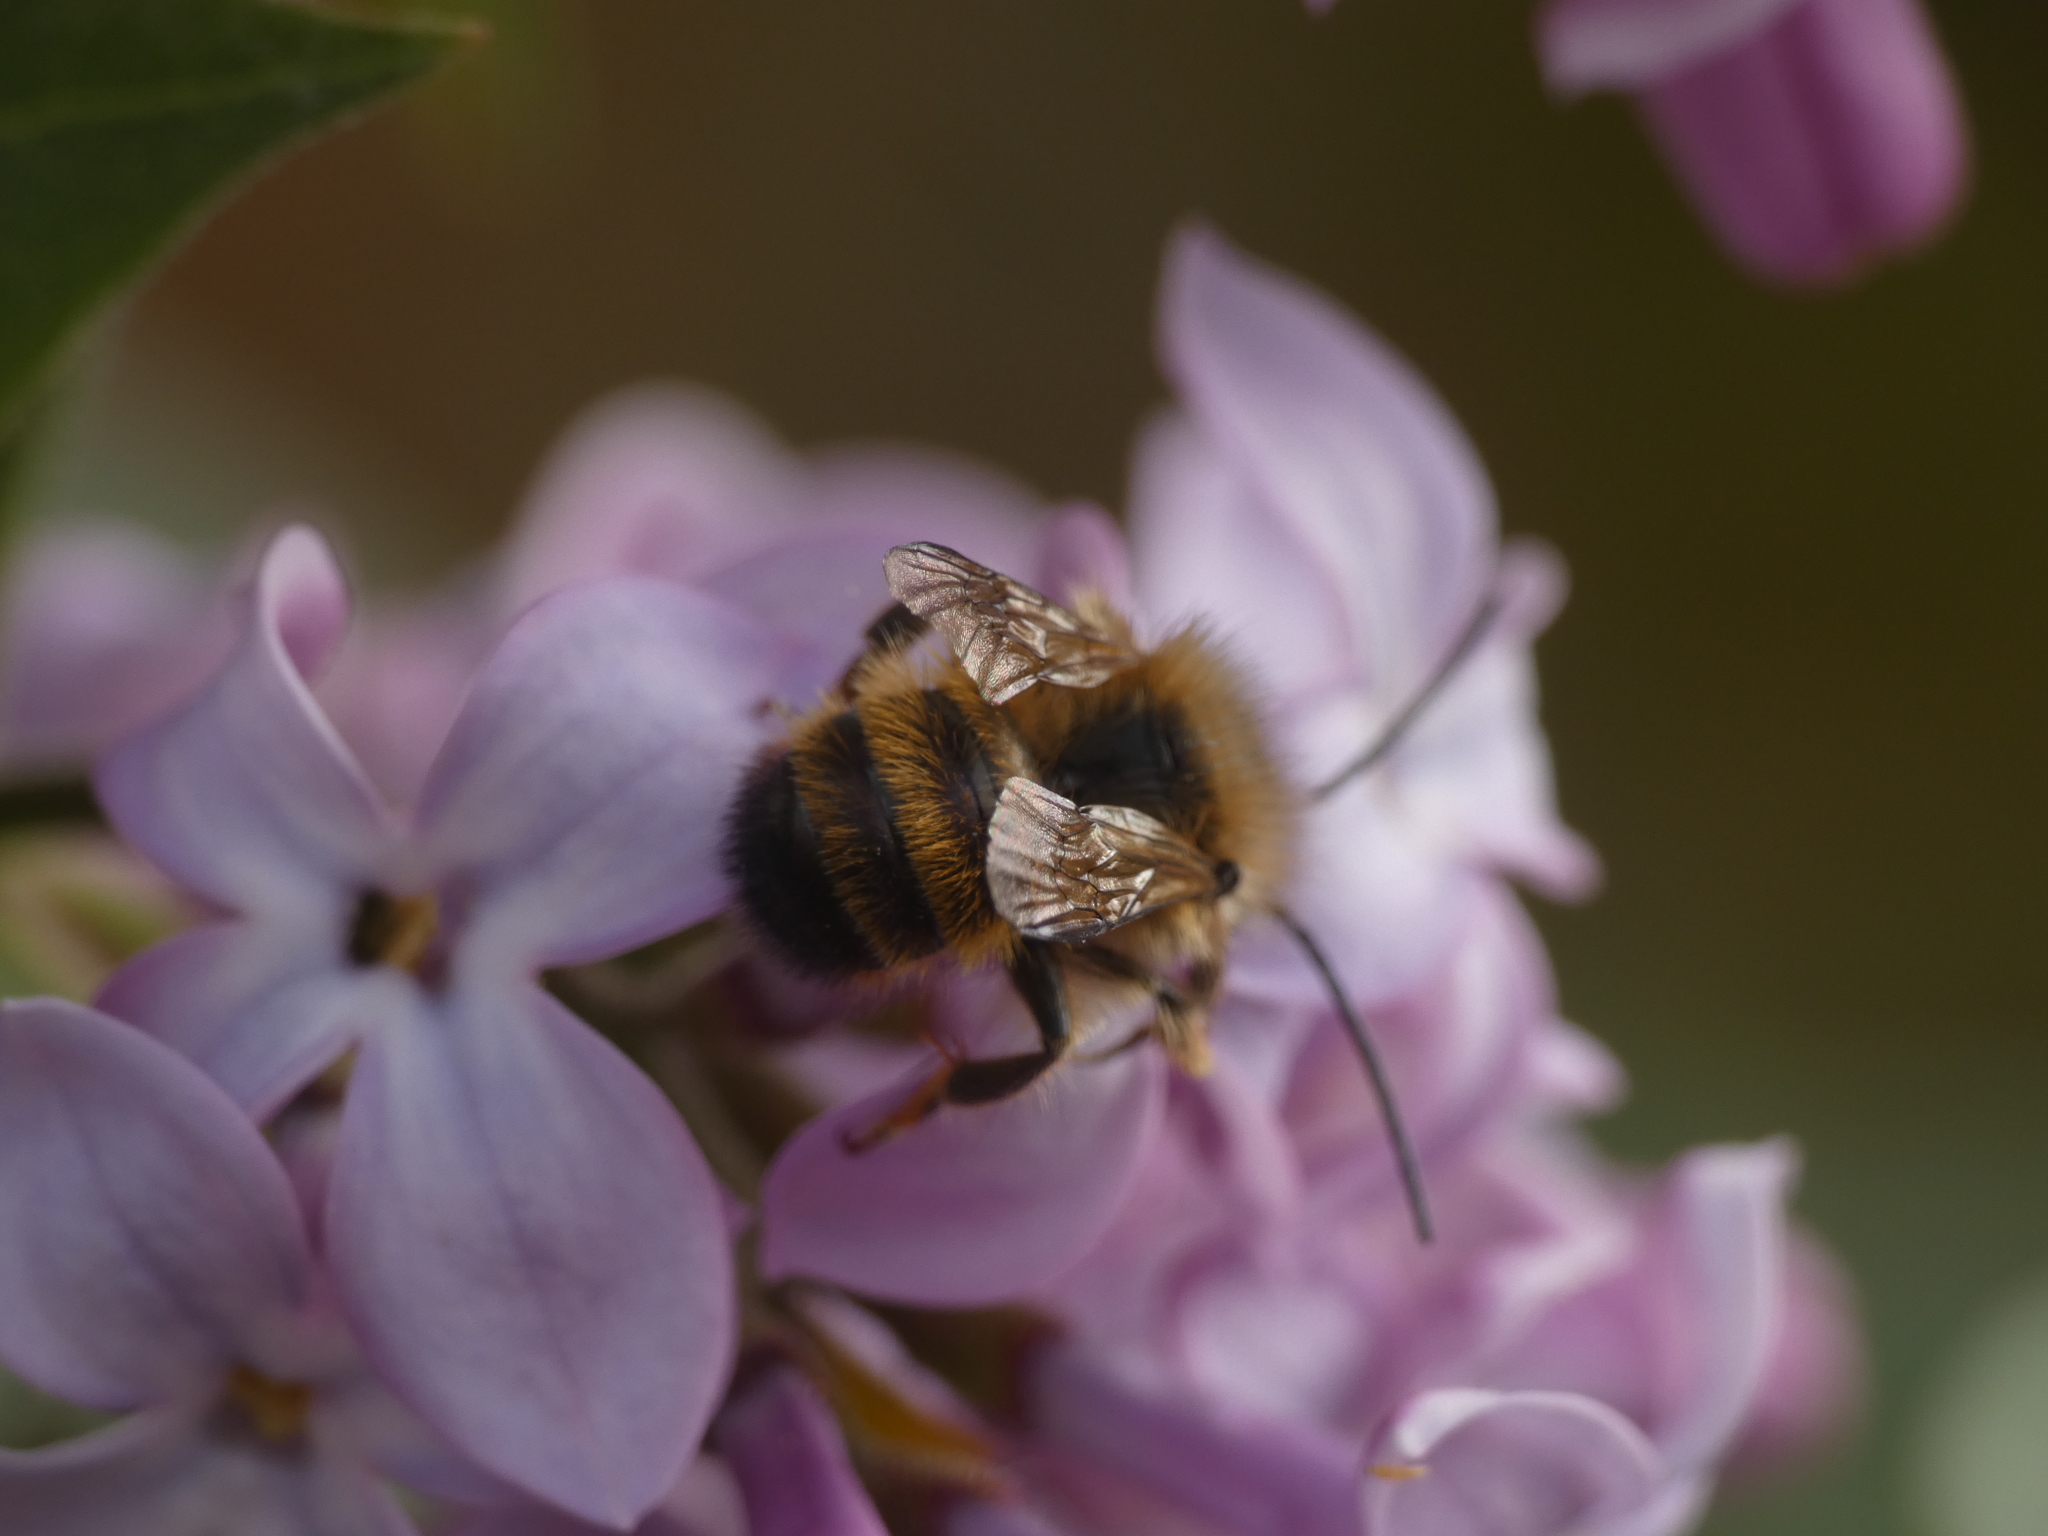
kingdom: Animalia
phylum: Arthropoda
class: Insecta
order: Hymenoptera
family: Megachilidae
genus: Osmia
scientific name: Osmia bicornis
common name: Red mason bee
